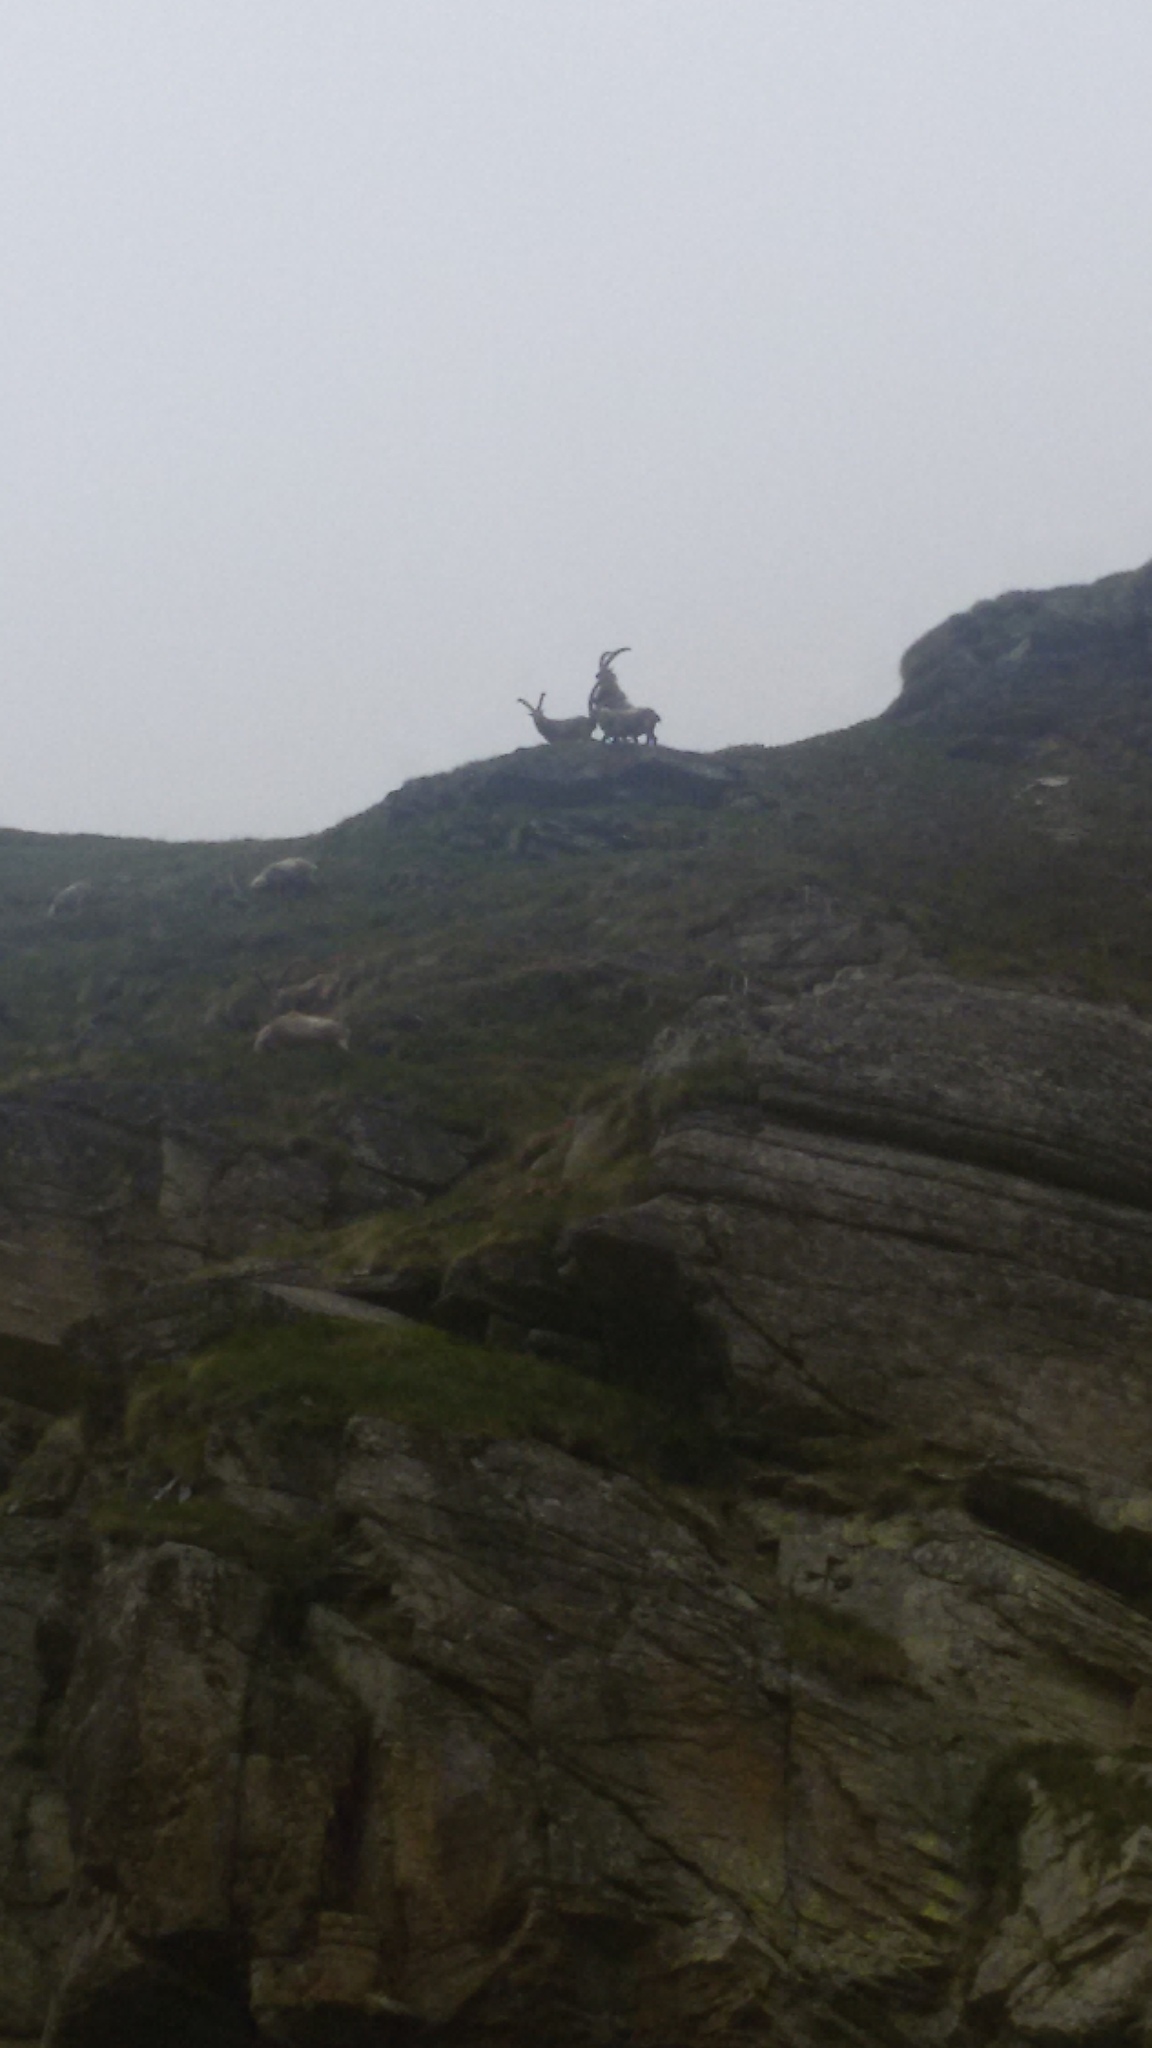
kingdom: Animalia
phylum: Chordata
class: Mammalia
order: Artiodactyla
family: Bovidae
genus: Capra
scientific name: Capra ibex
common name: Alpine ibex
